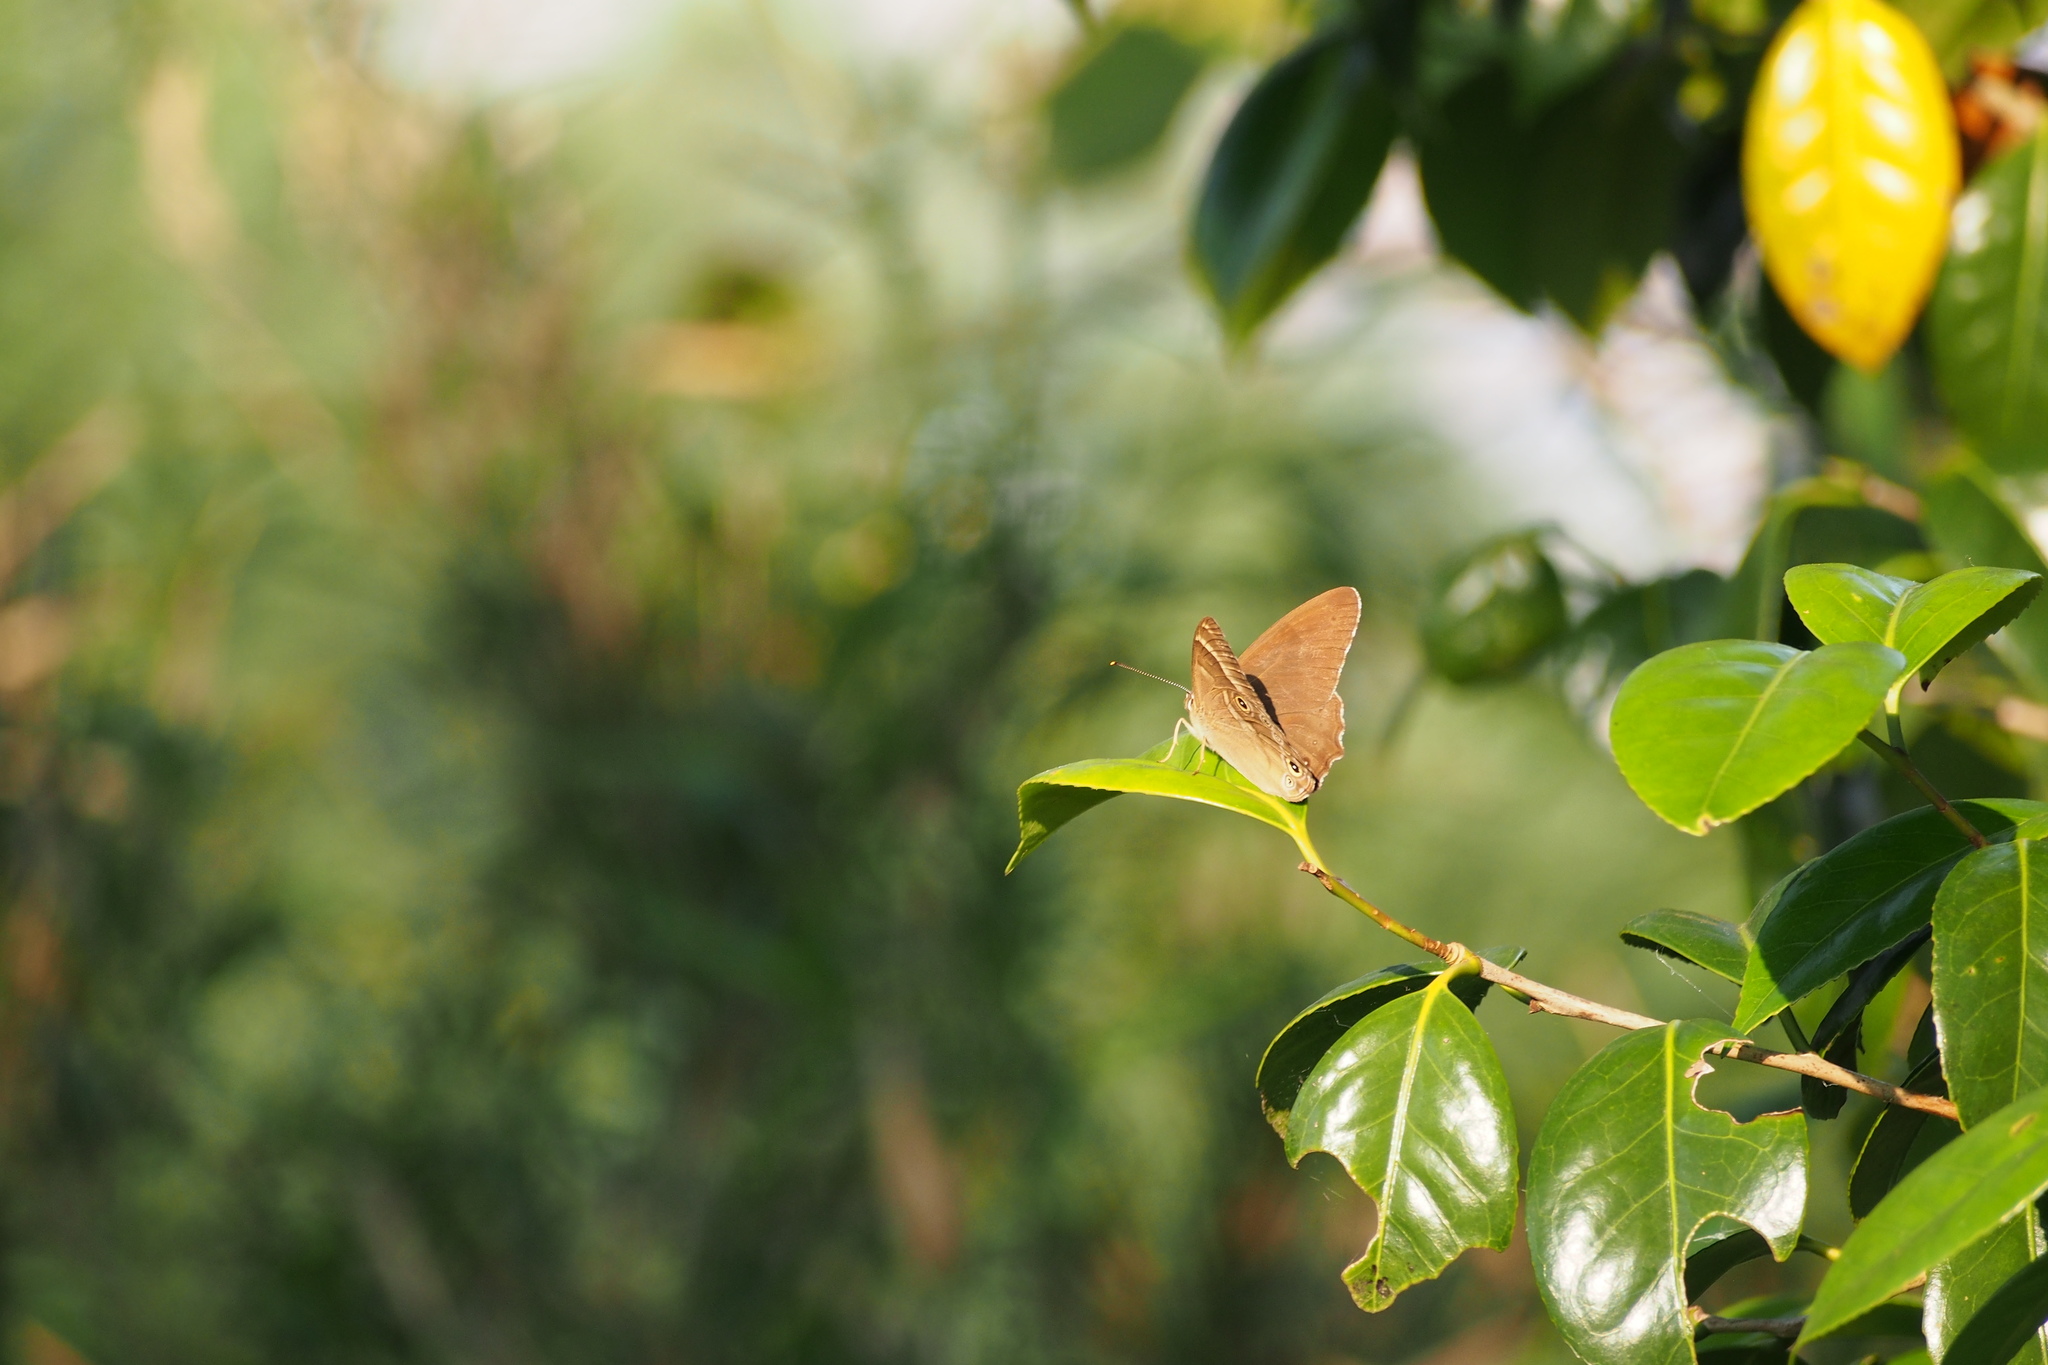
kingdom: Animalia
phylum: Arthropoda
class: Insecta
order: Lepidoptera
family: Nymphalidae
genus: Lethe
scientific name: Lethe sicelis
